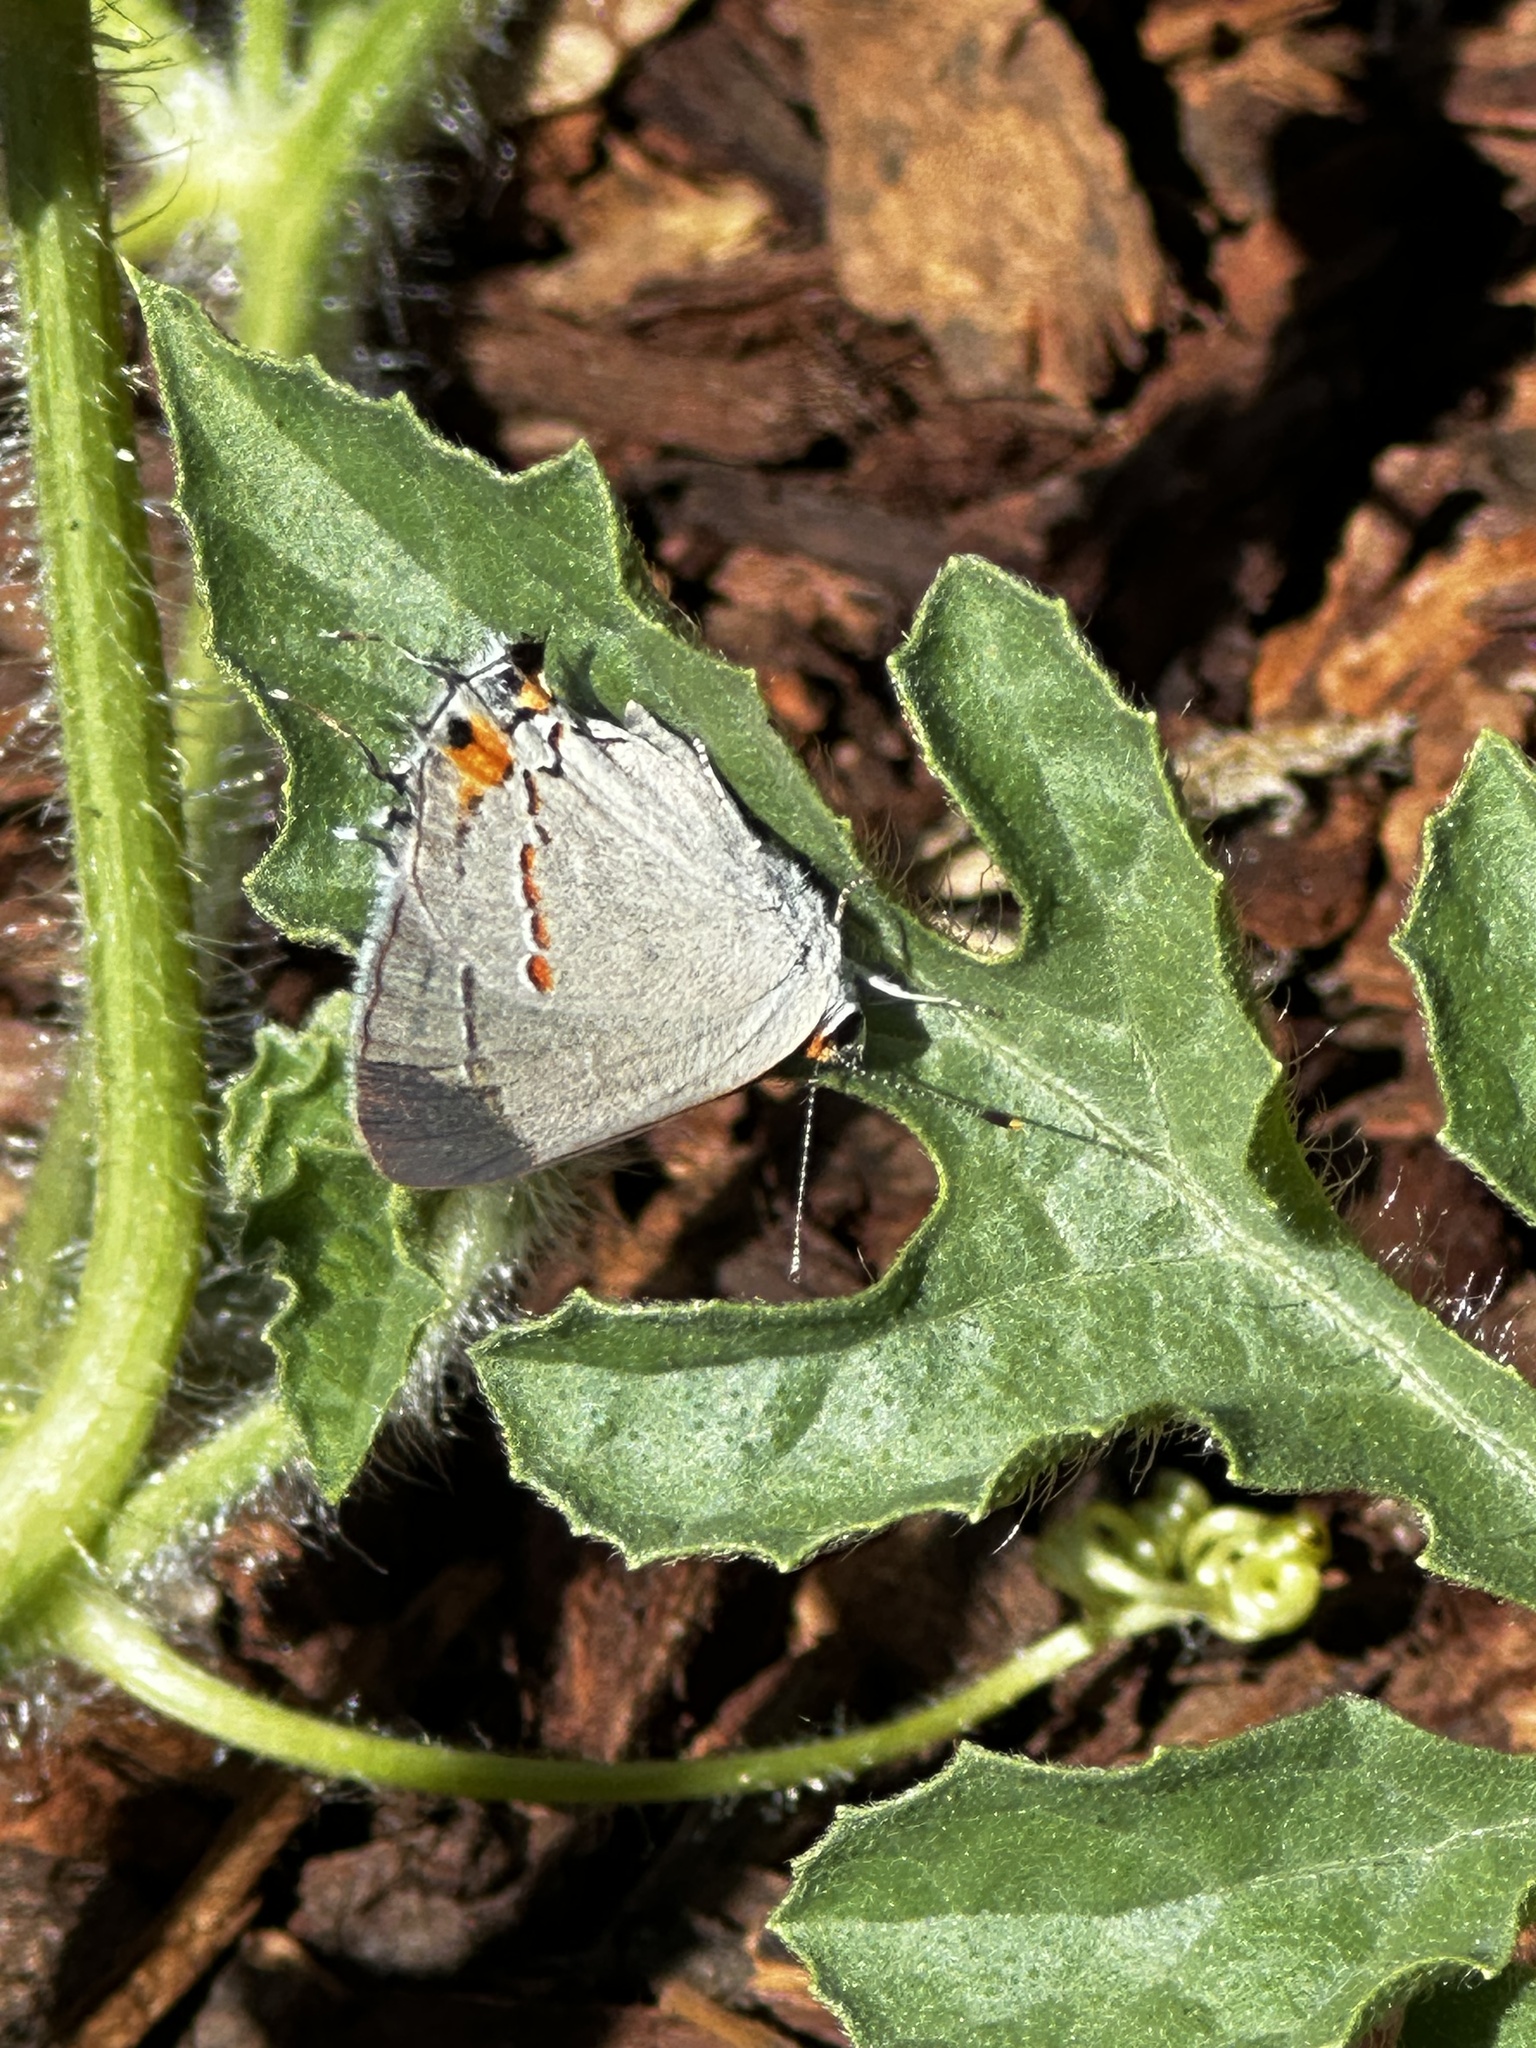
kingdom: Animalia
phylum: Arthropoda
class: Insecta
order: Lepidoptera
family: Lycaenidae
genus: Strymon
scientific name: Strymon melinus
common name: Gray hairstreak
